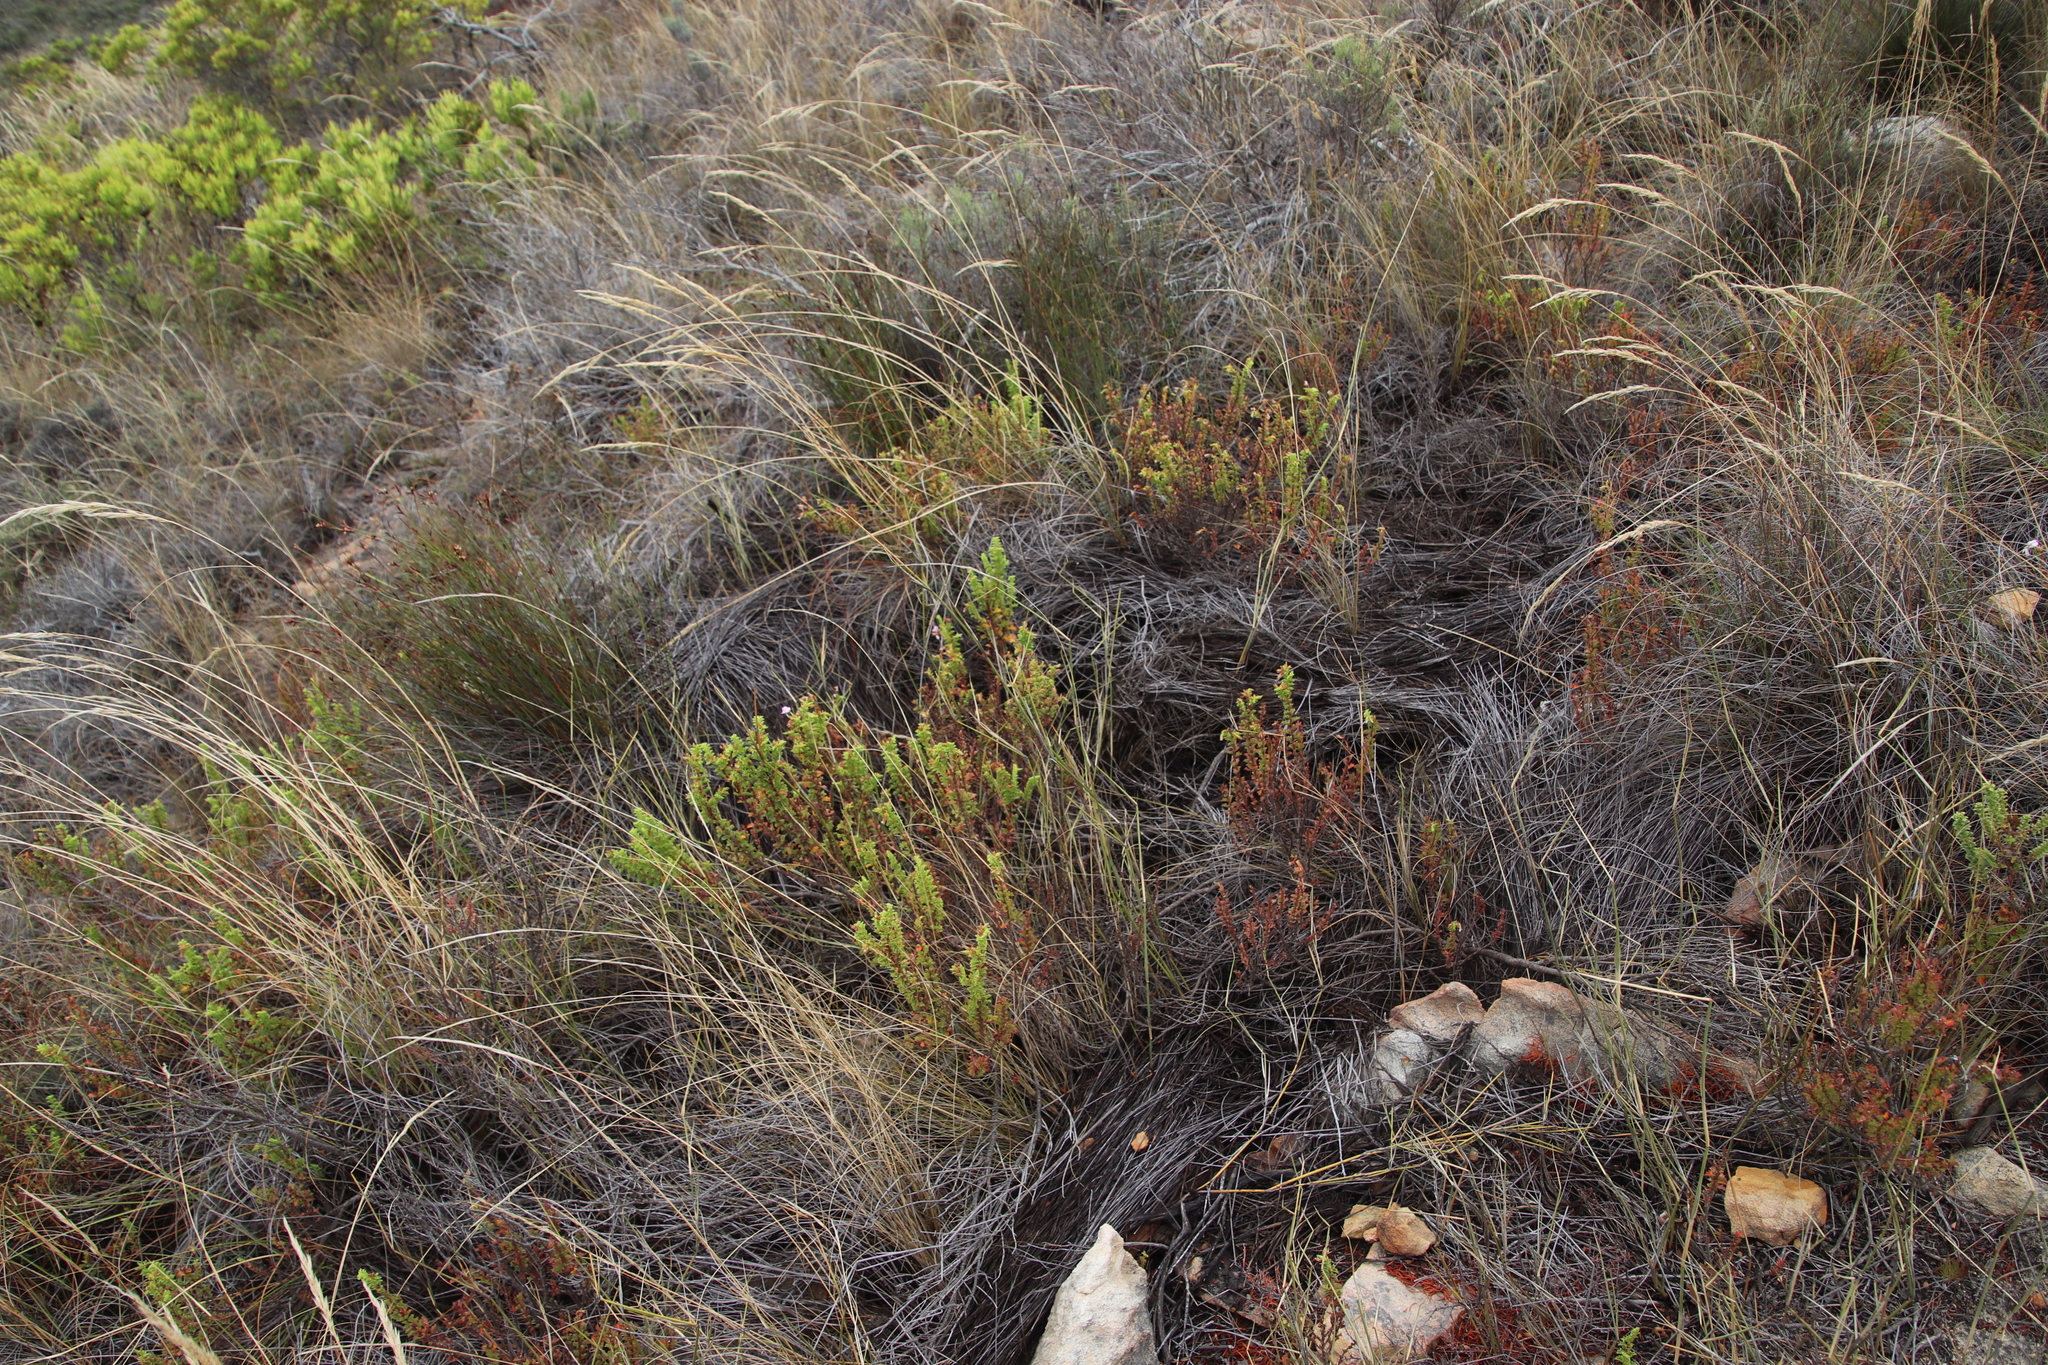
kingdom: Plantae
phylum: Tracheophyta
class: Magnoliopsida
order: Geraniales
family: Geraniaceae
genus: Pelargonium
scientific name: Pelargonium hermaniifolium
